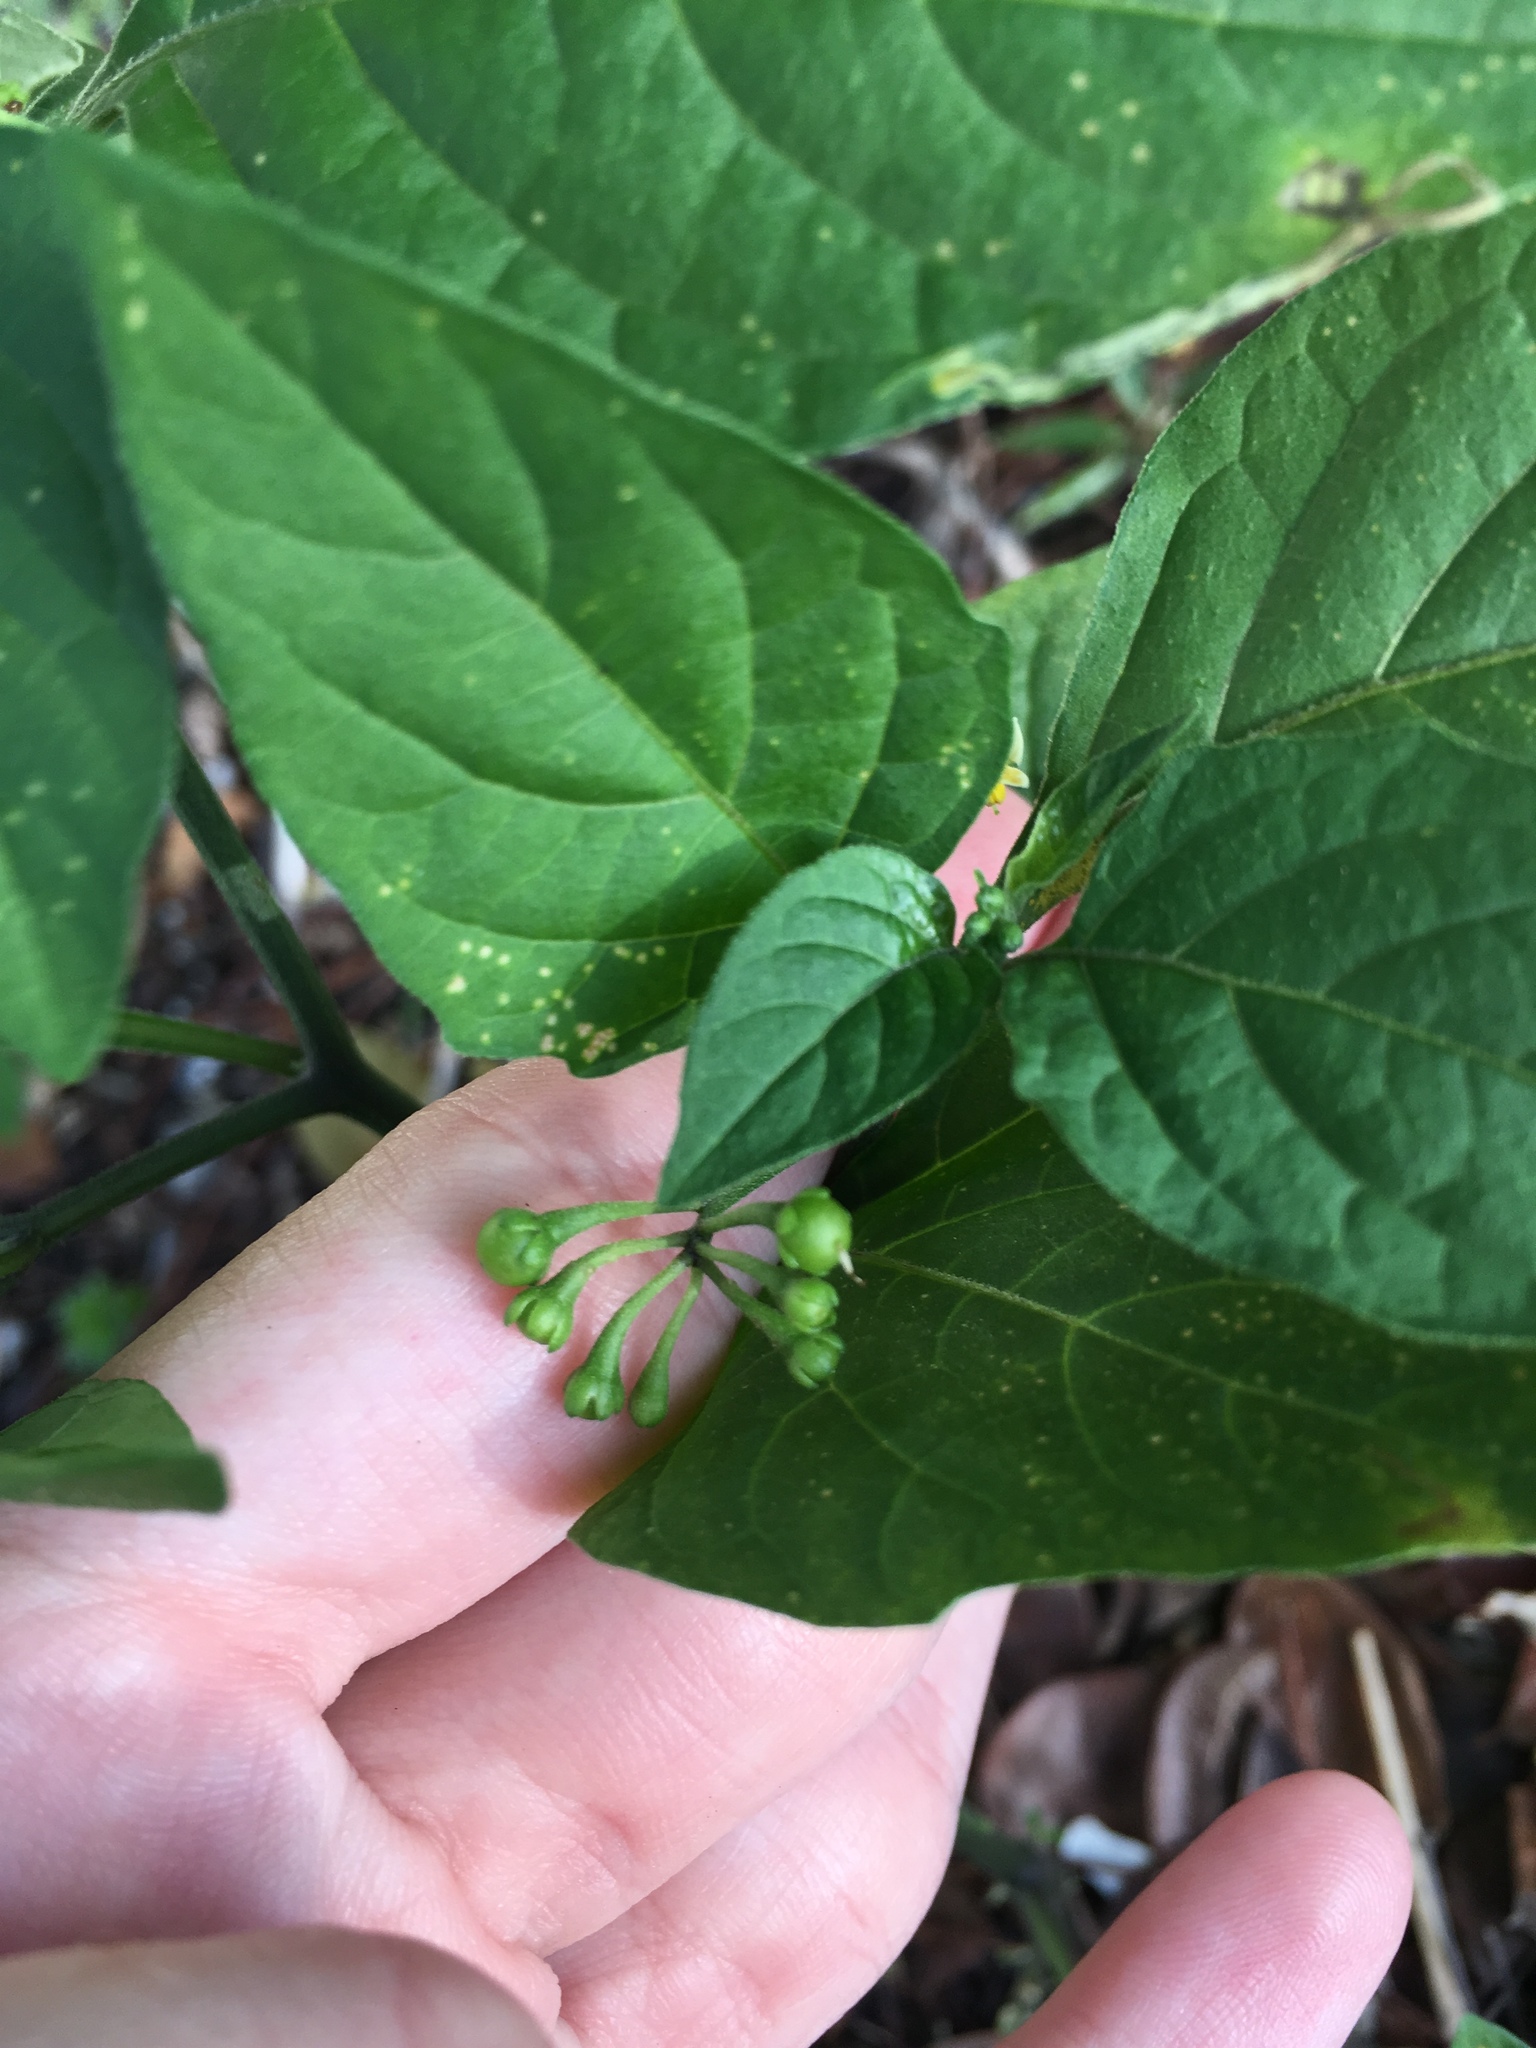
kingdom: Plantae
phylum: Tracheophyta
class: Magnoliopsida
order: Solanales
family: Solanaceae
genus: Solanum
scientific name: Solanum americanum
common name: American black nightshade
